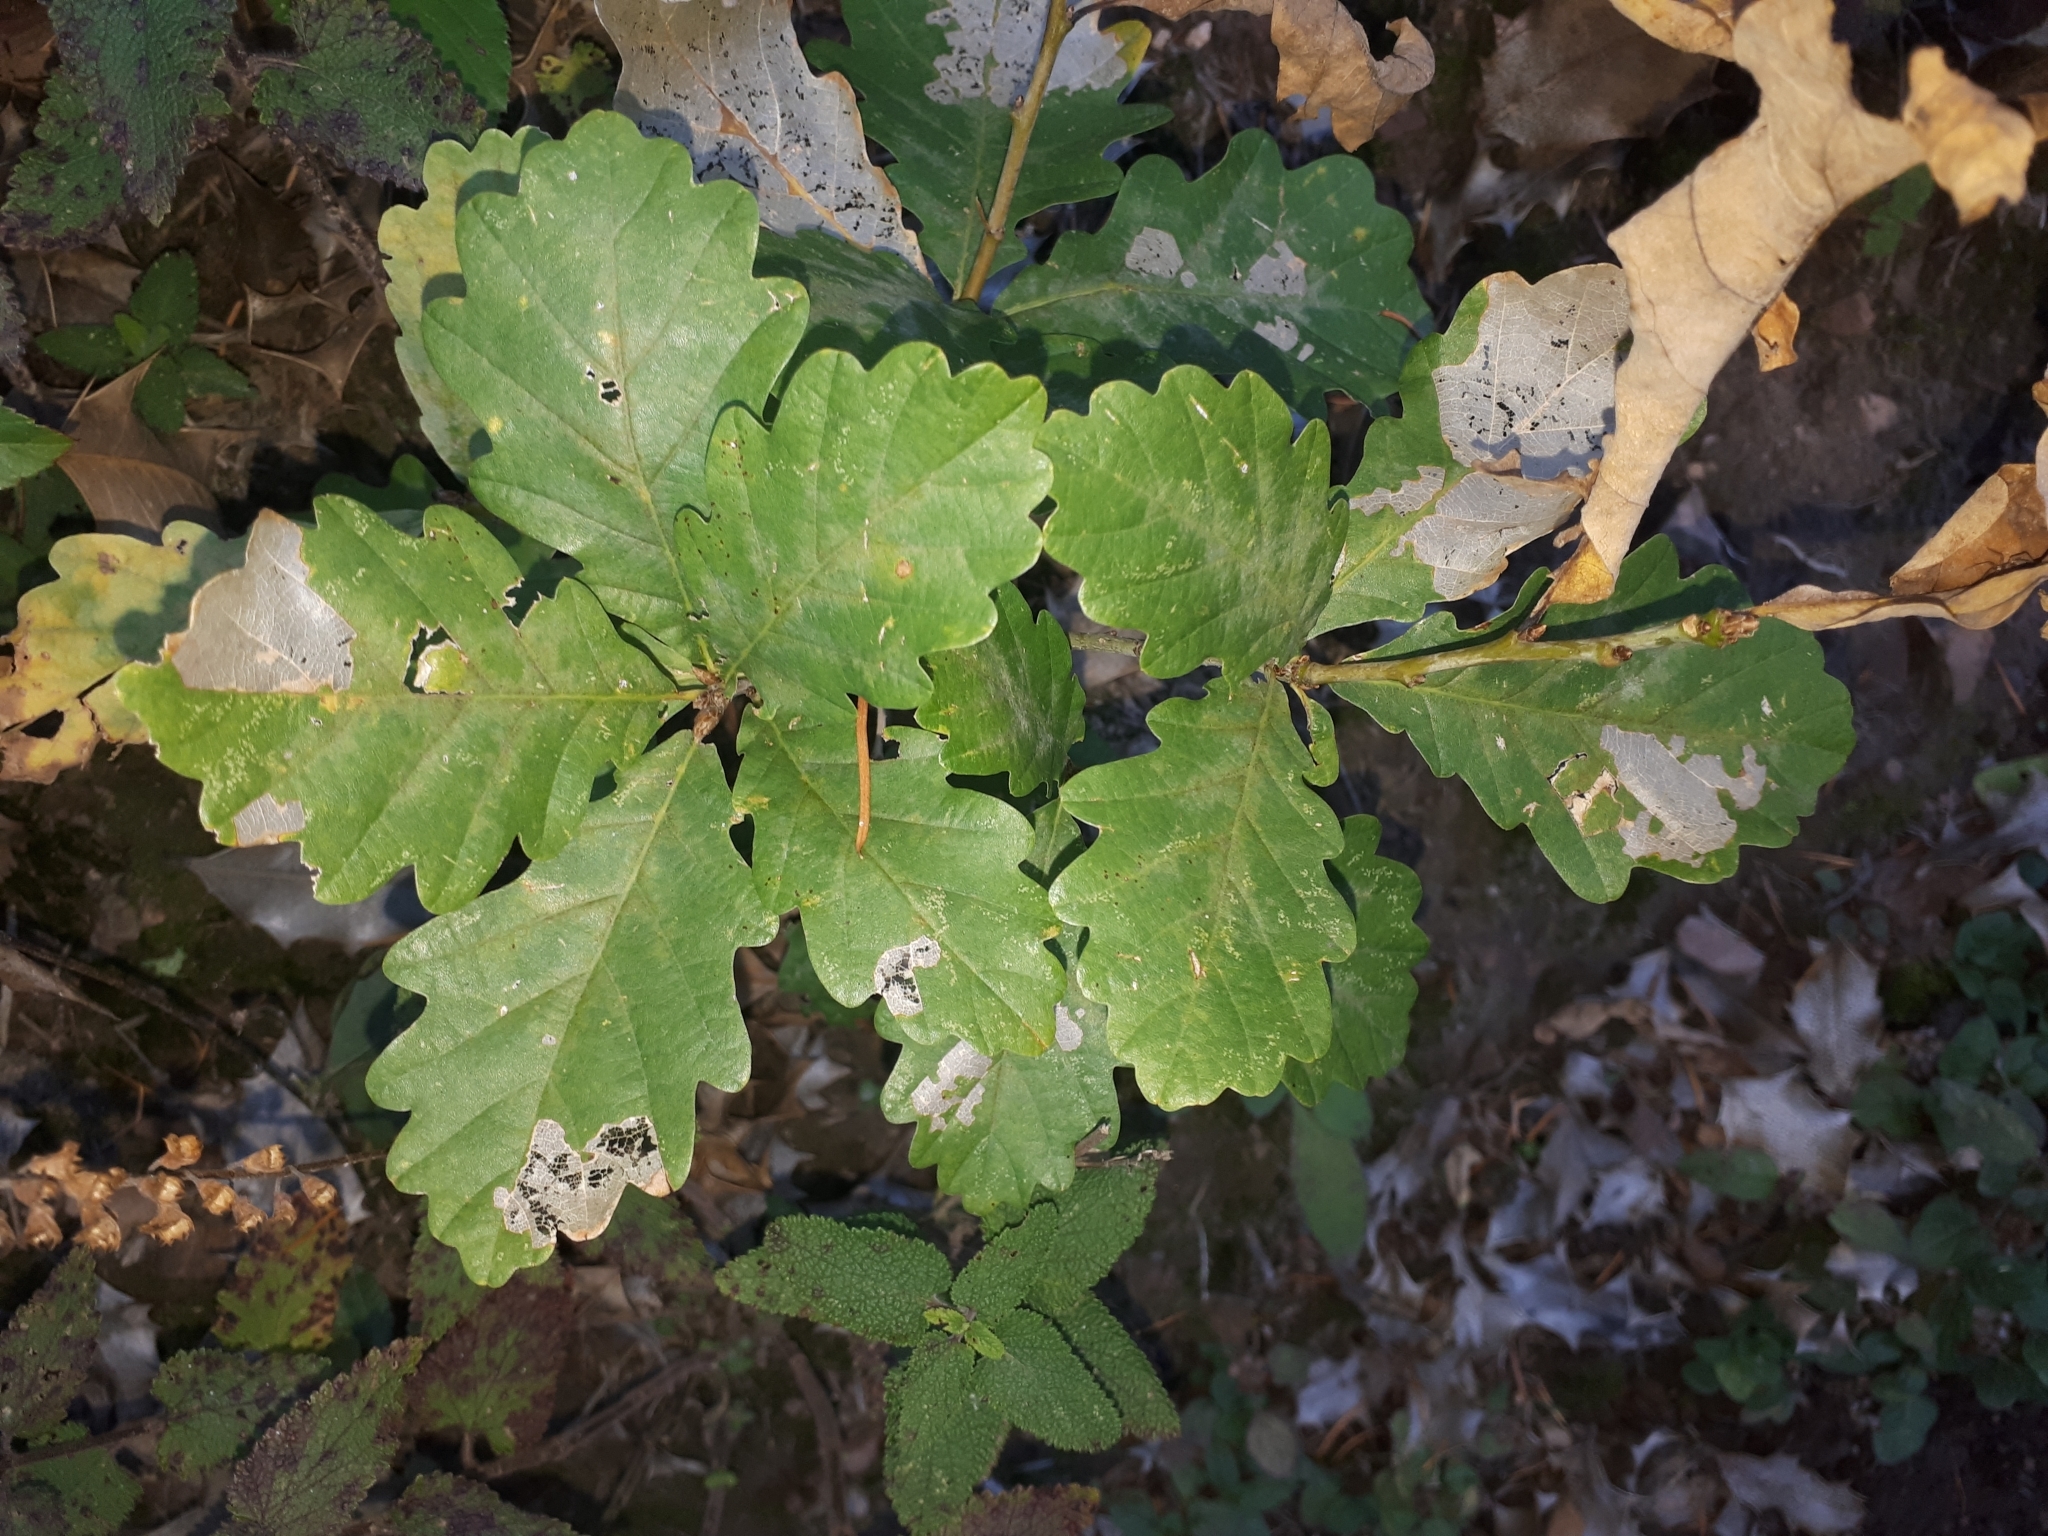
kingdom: Plantae
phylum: Tracheophyta
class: Magnoliopsida
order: Fagales
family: Fagaceae
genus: Quercus
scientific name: Quercus robur
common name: Pedunculate oak
